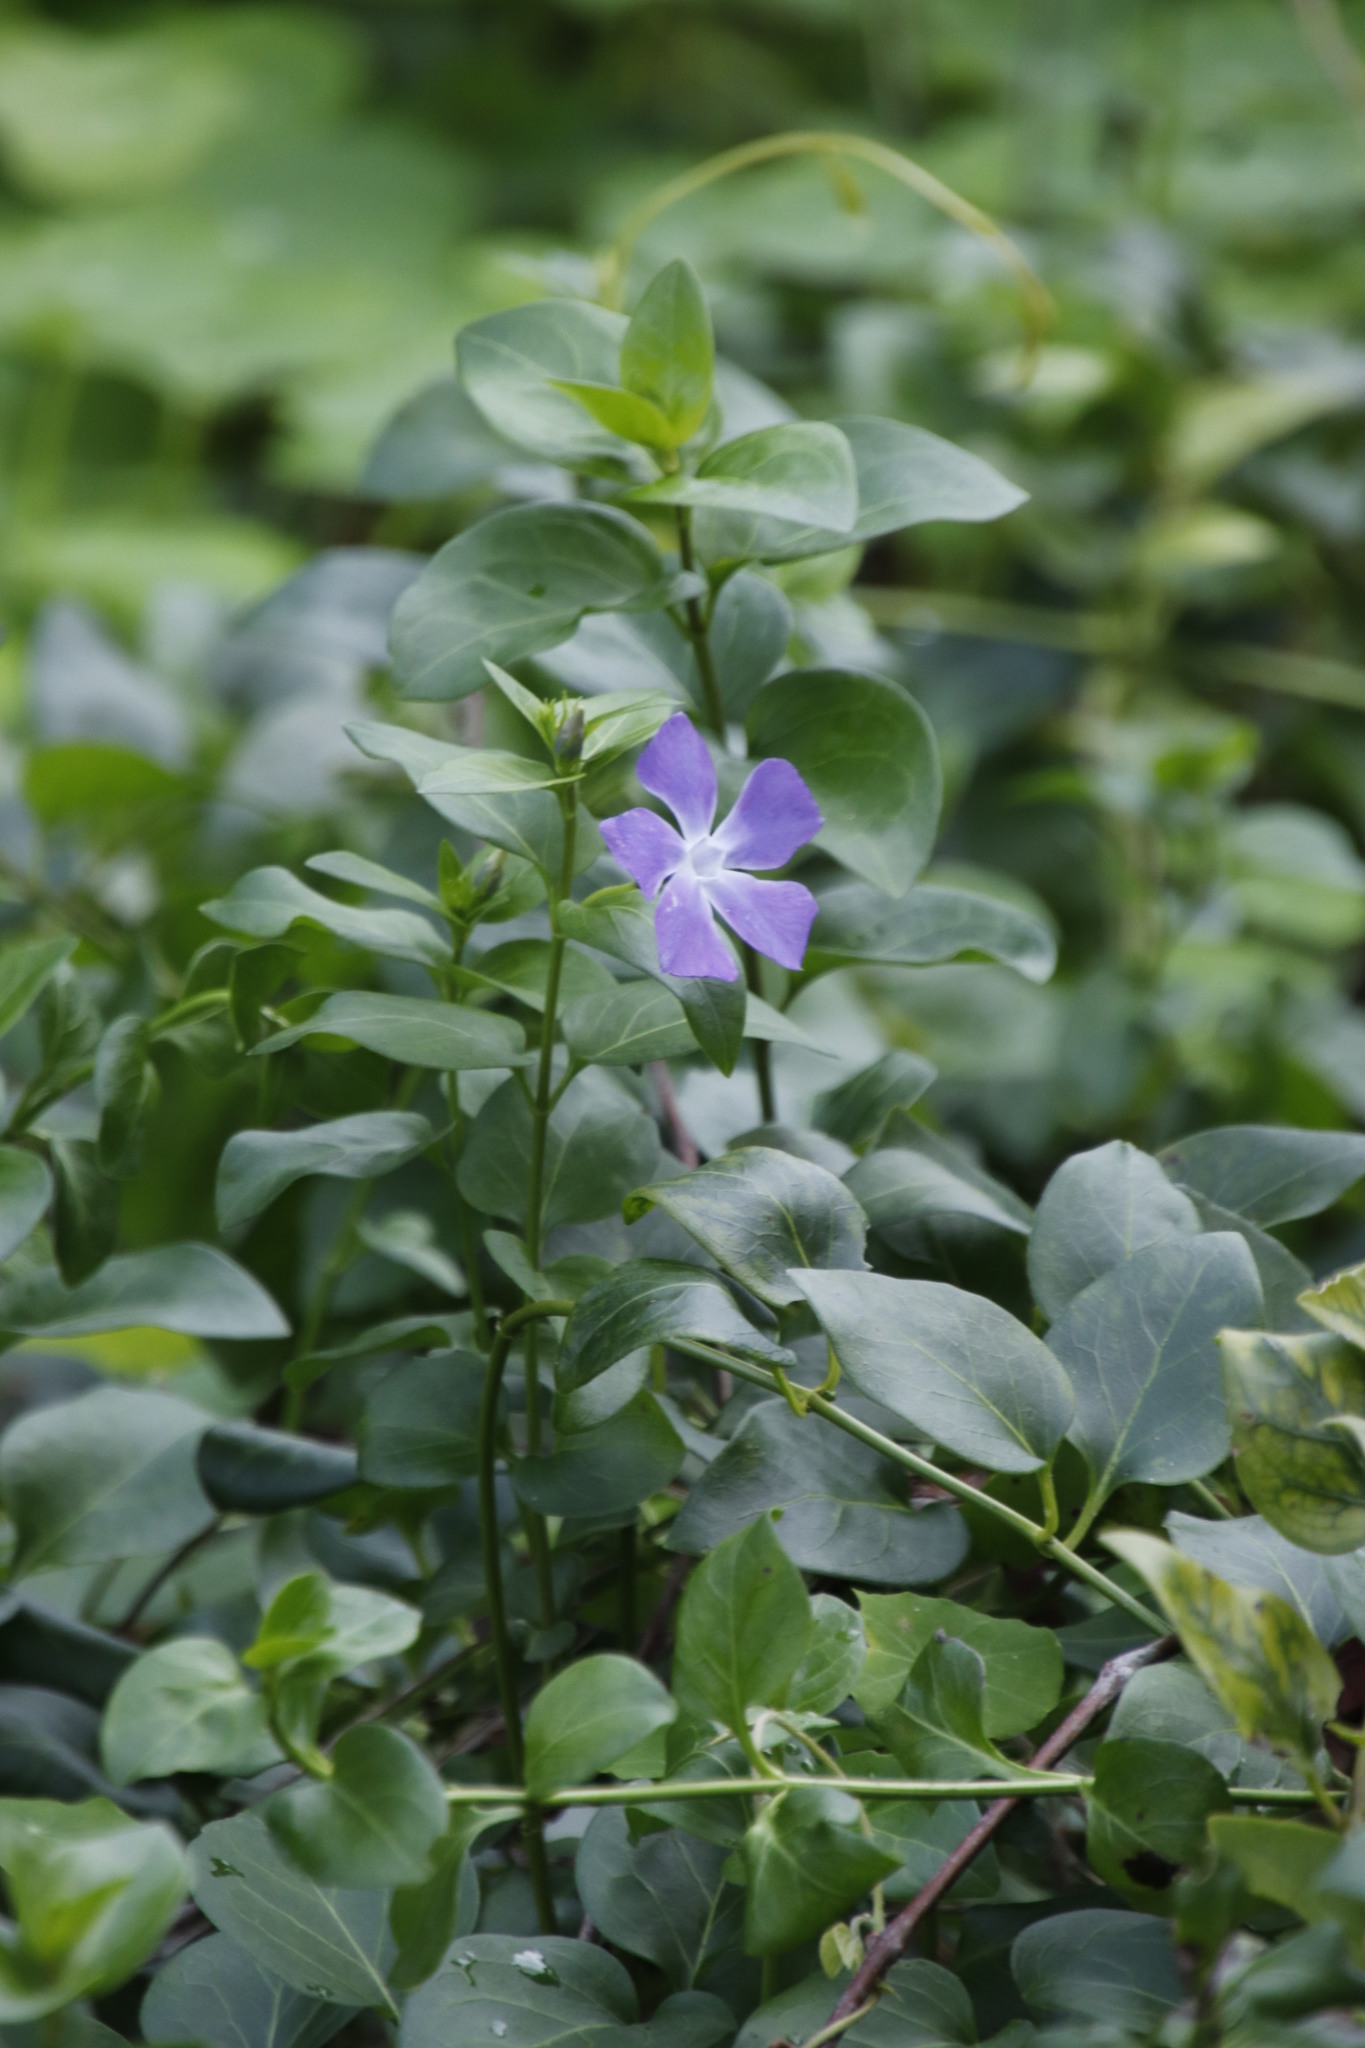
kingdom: Plantae
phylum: Tracheophyta
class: Magnoliopsida
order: Gentianales
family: Apocynaceae
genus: Vinca
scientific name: Vinca major
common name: Greater periwinkle
